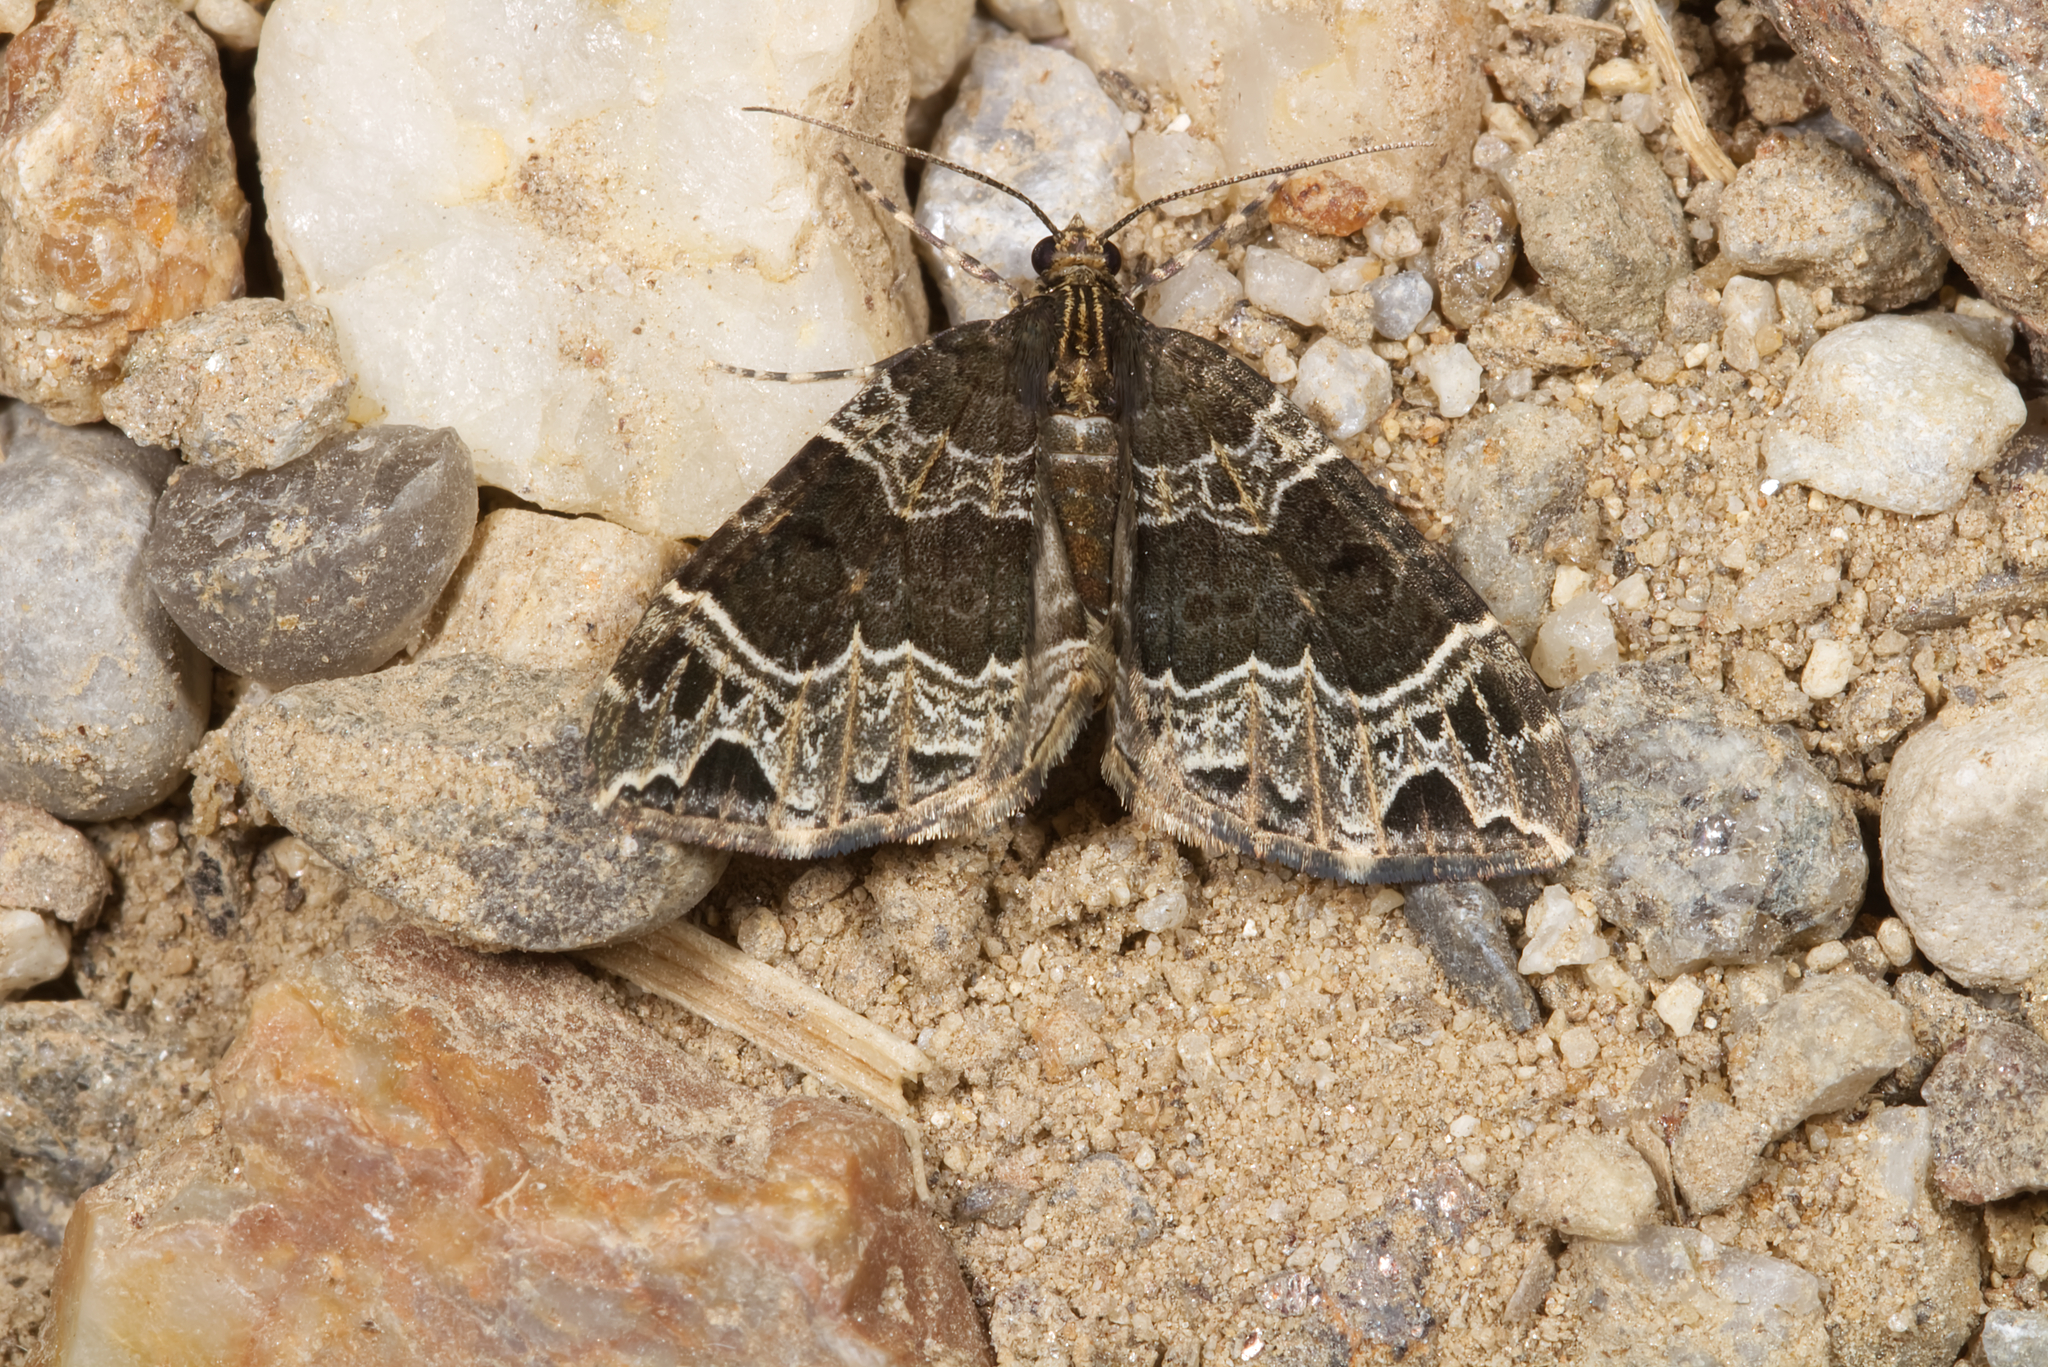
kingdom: Animalia
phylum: Arthropoda
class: Insecta
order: Lepidoptera
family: Geometridae
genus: Ecliptopera
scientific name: Ecliptopera silaceata
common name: Small phoenix
